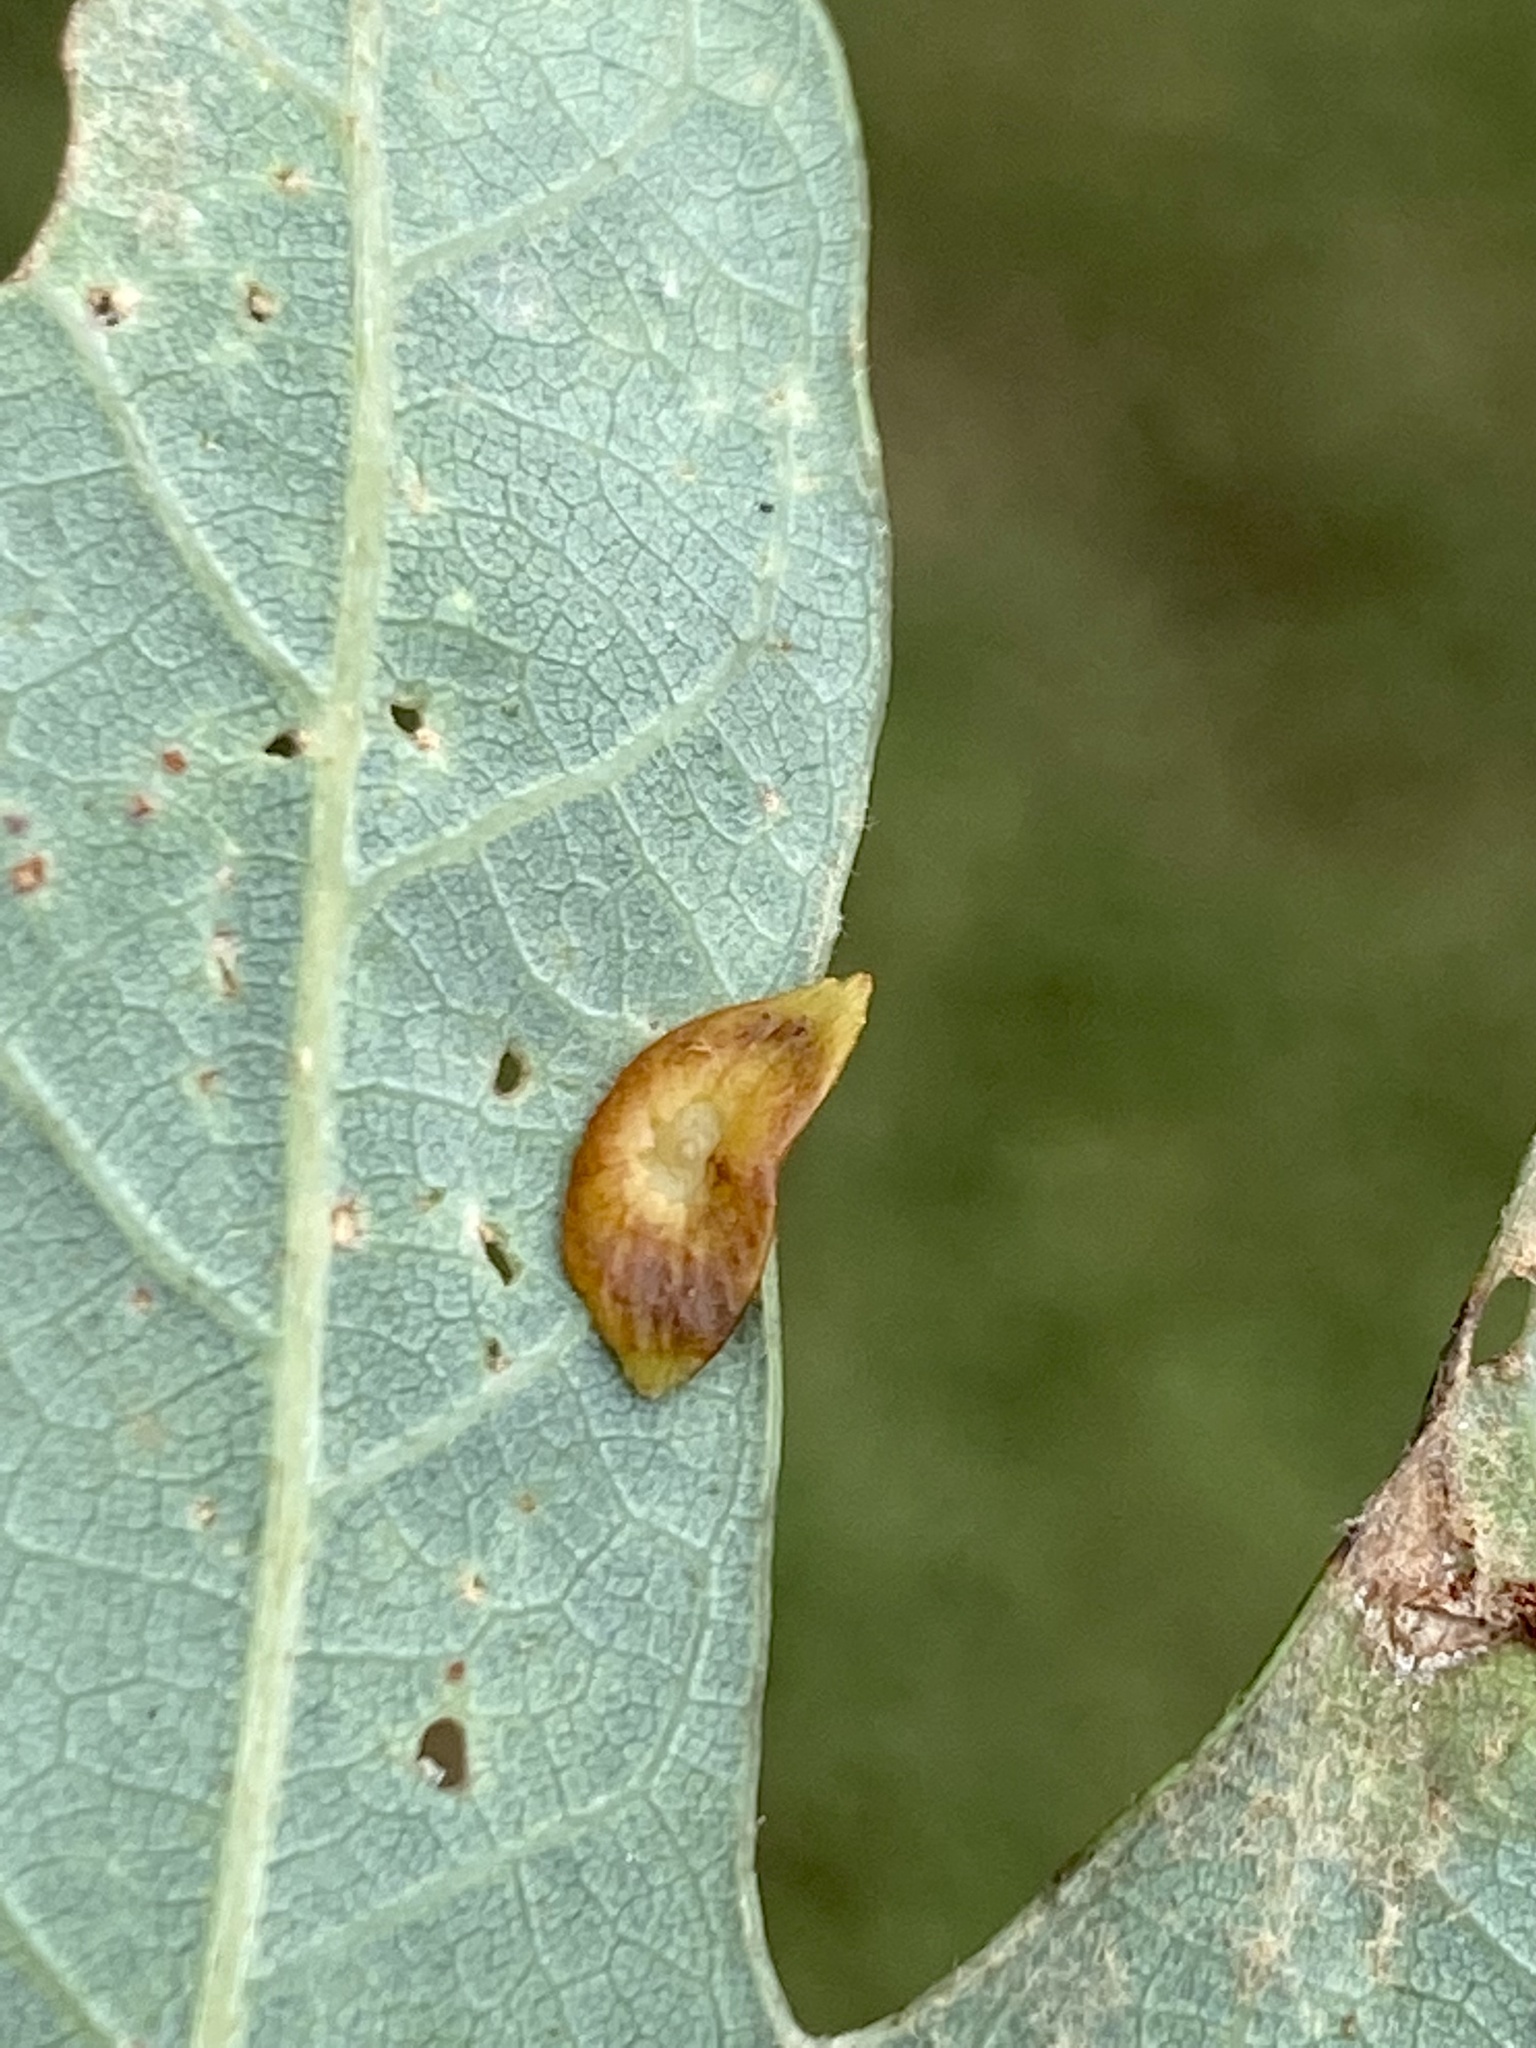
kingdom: Animalia
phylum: Arthropoda
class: Insecta
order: Hymenoptera
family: Cynipidae
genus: Phylloteras
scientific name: Phylloteras
